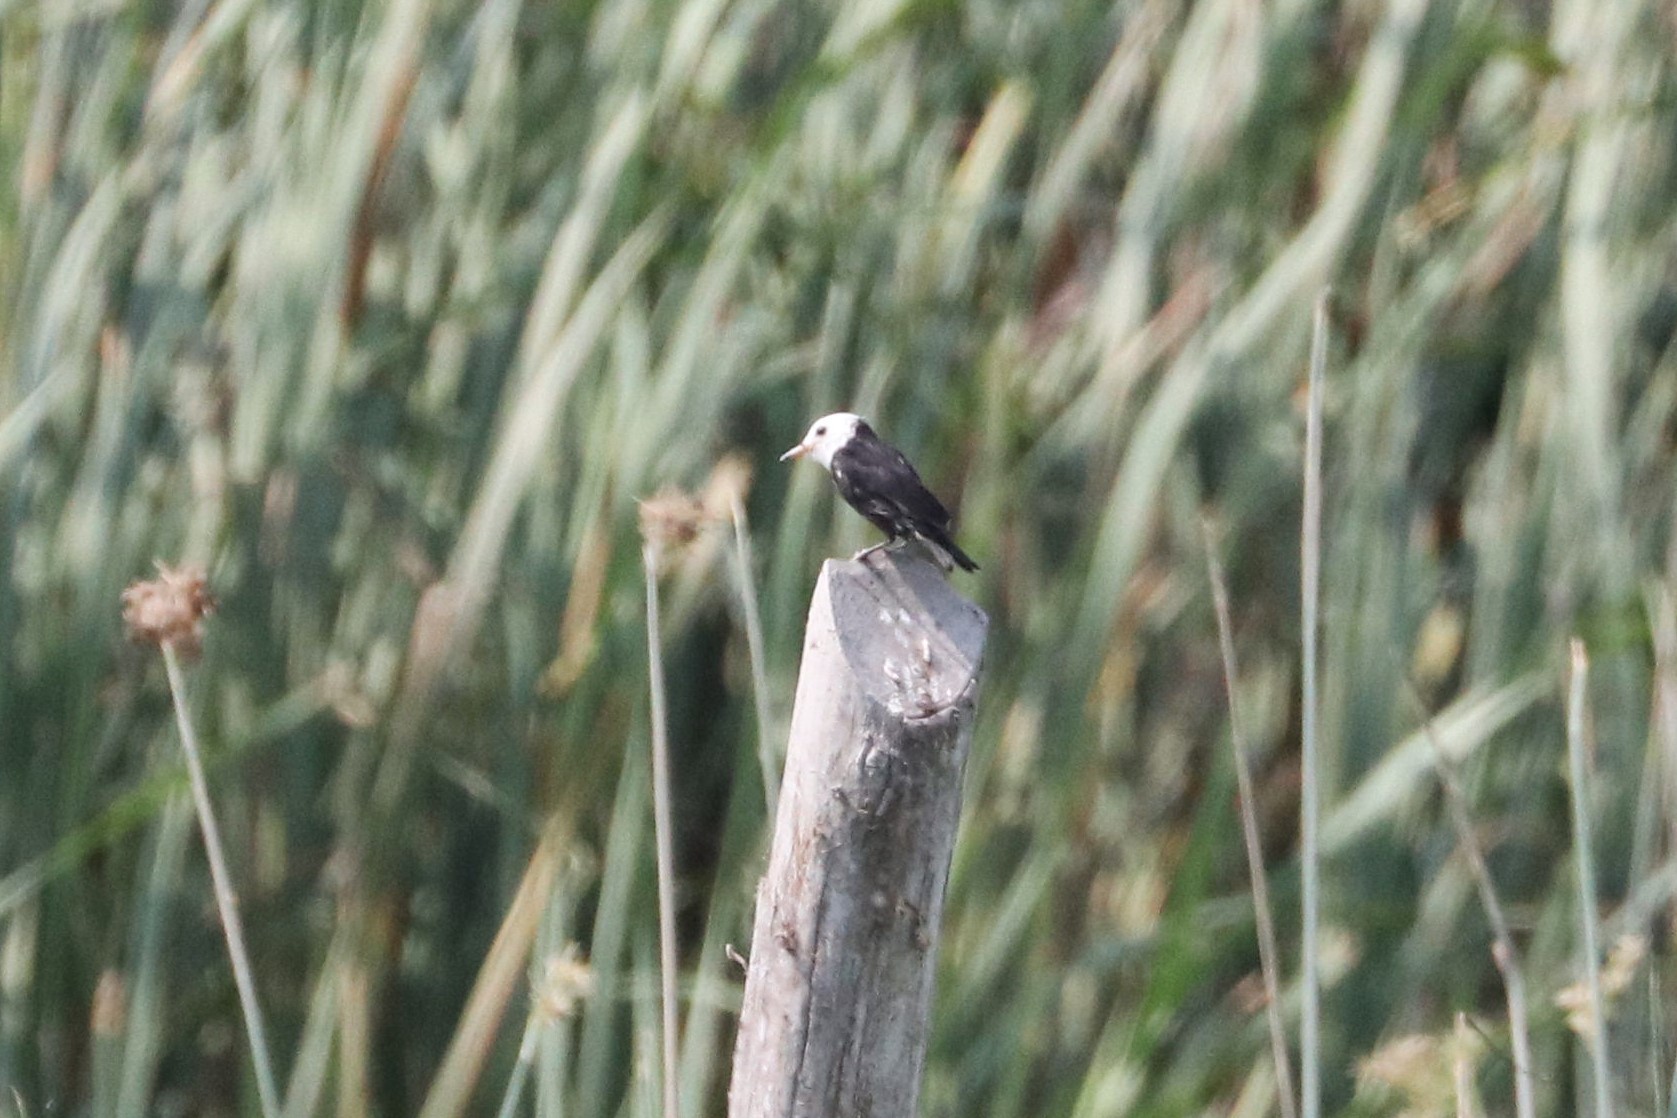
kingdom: Animalia
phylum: Chordata
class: Aves
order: Passeriformes
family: Tyrannidae
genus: Arundinicola
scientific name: Arundinicola leucocephala
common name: White-headed marsh tyrant
